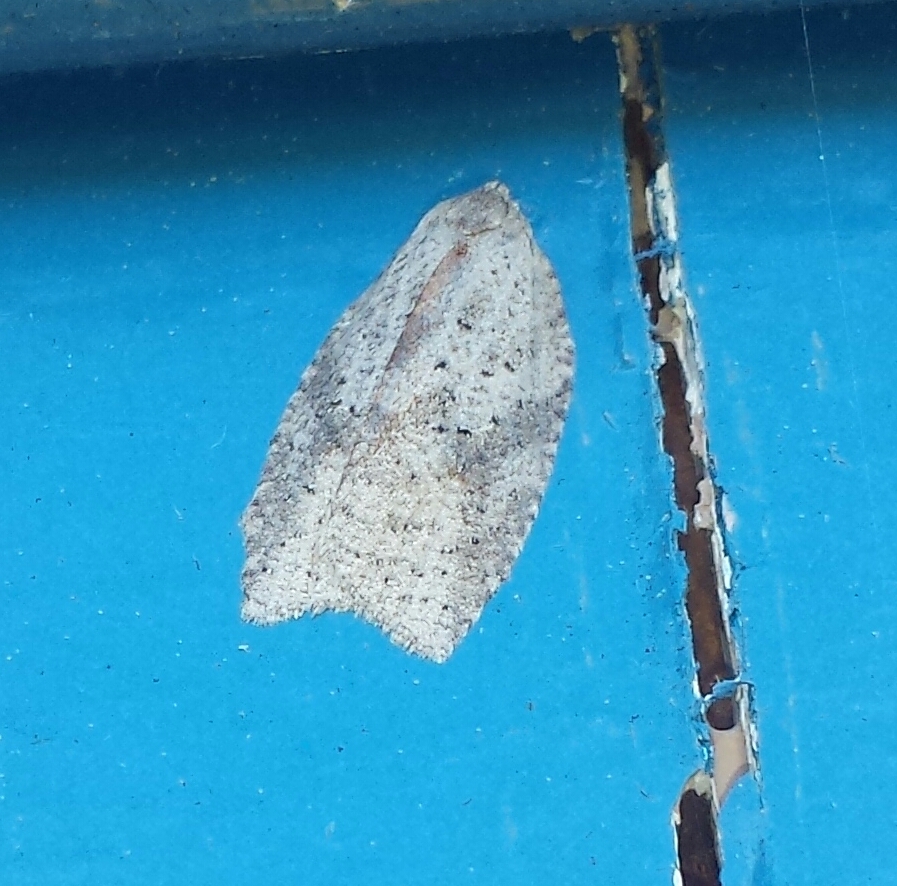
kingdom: Animalia
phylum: Arthropoda
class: Insecta
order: Lepidoptera
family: Tortricidae
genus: Amorbia
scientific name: Amorbia humerosana
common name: White-lined leafroller moth
